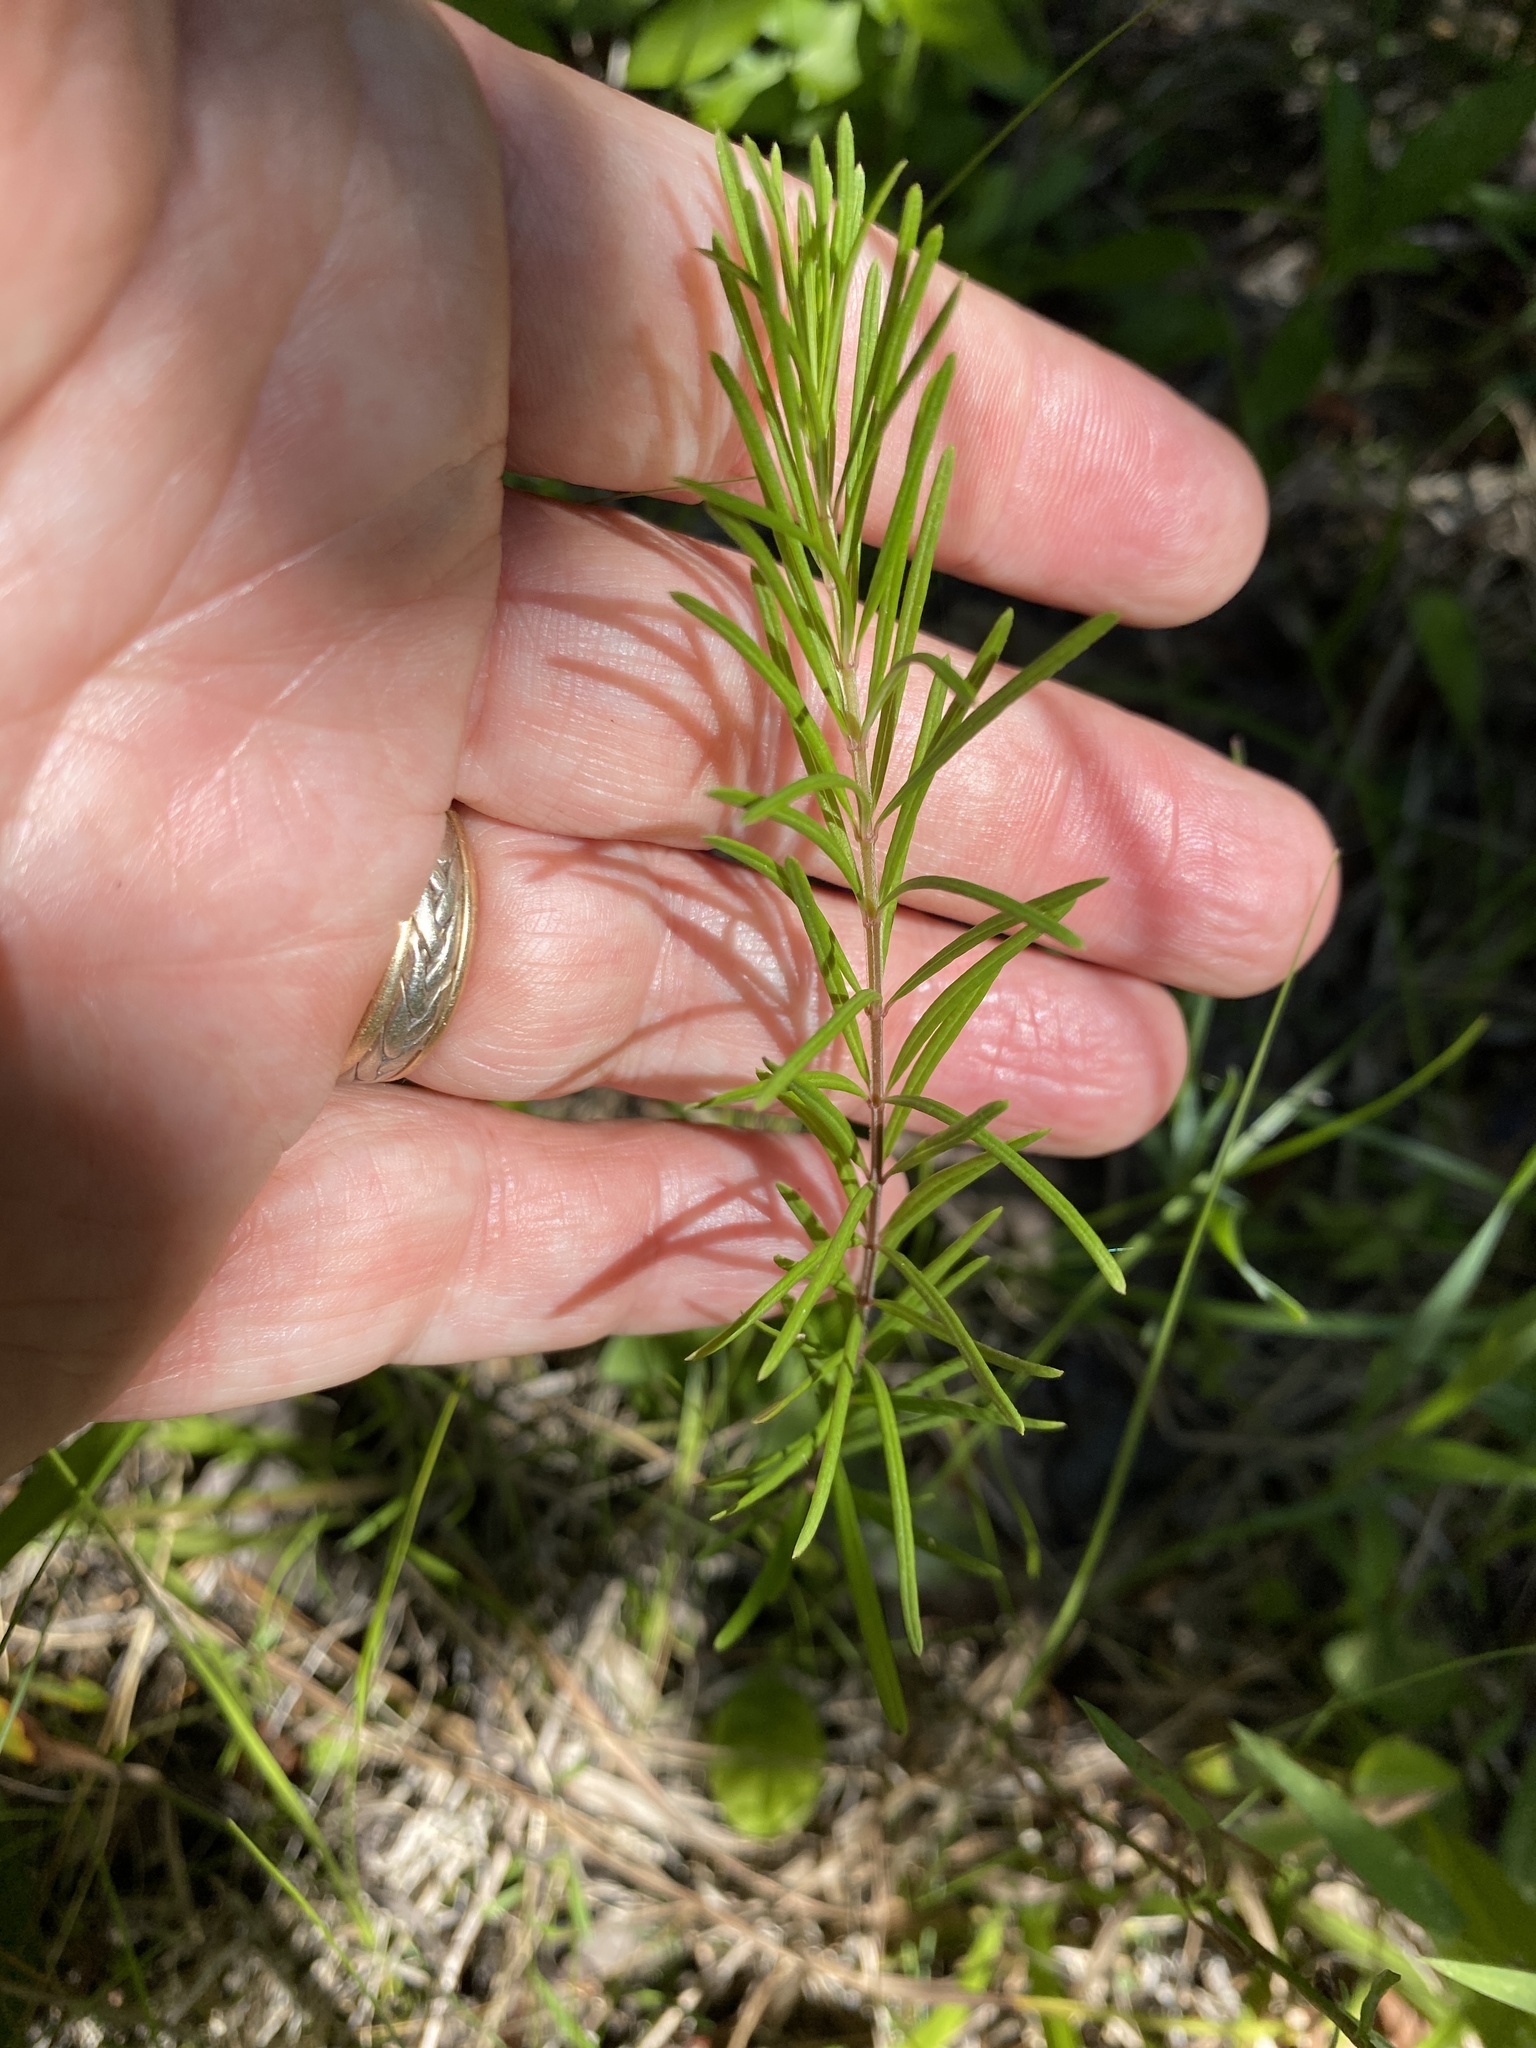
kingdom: Plantae
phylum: Tracheophyta
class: Magnoliopsida
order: Gentianales
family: Apocynaceae
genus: Asclepias
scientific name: Asclepias verticillata
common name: Eastern whorled milkweed
